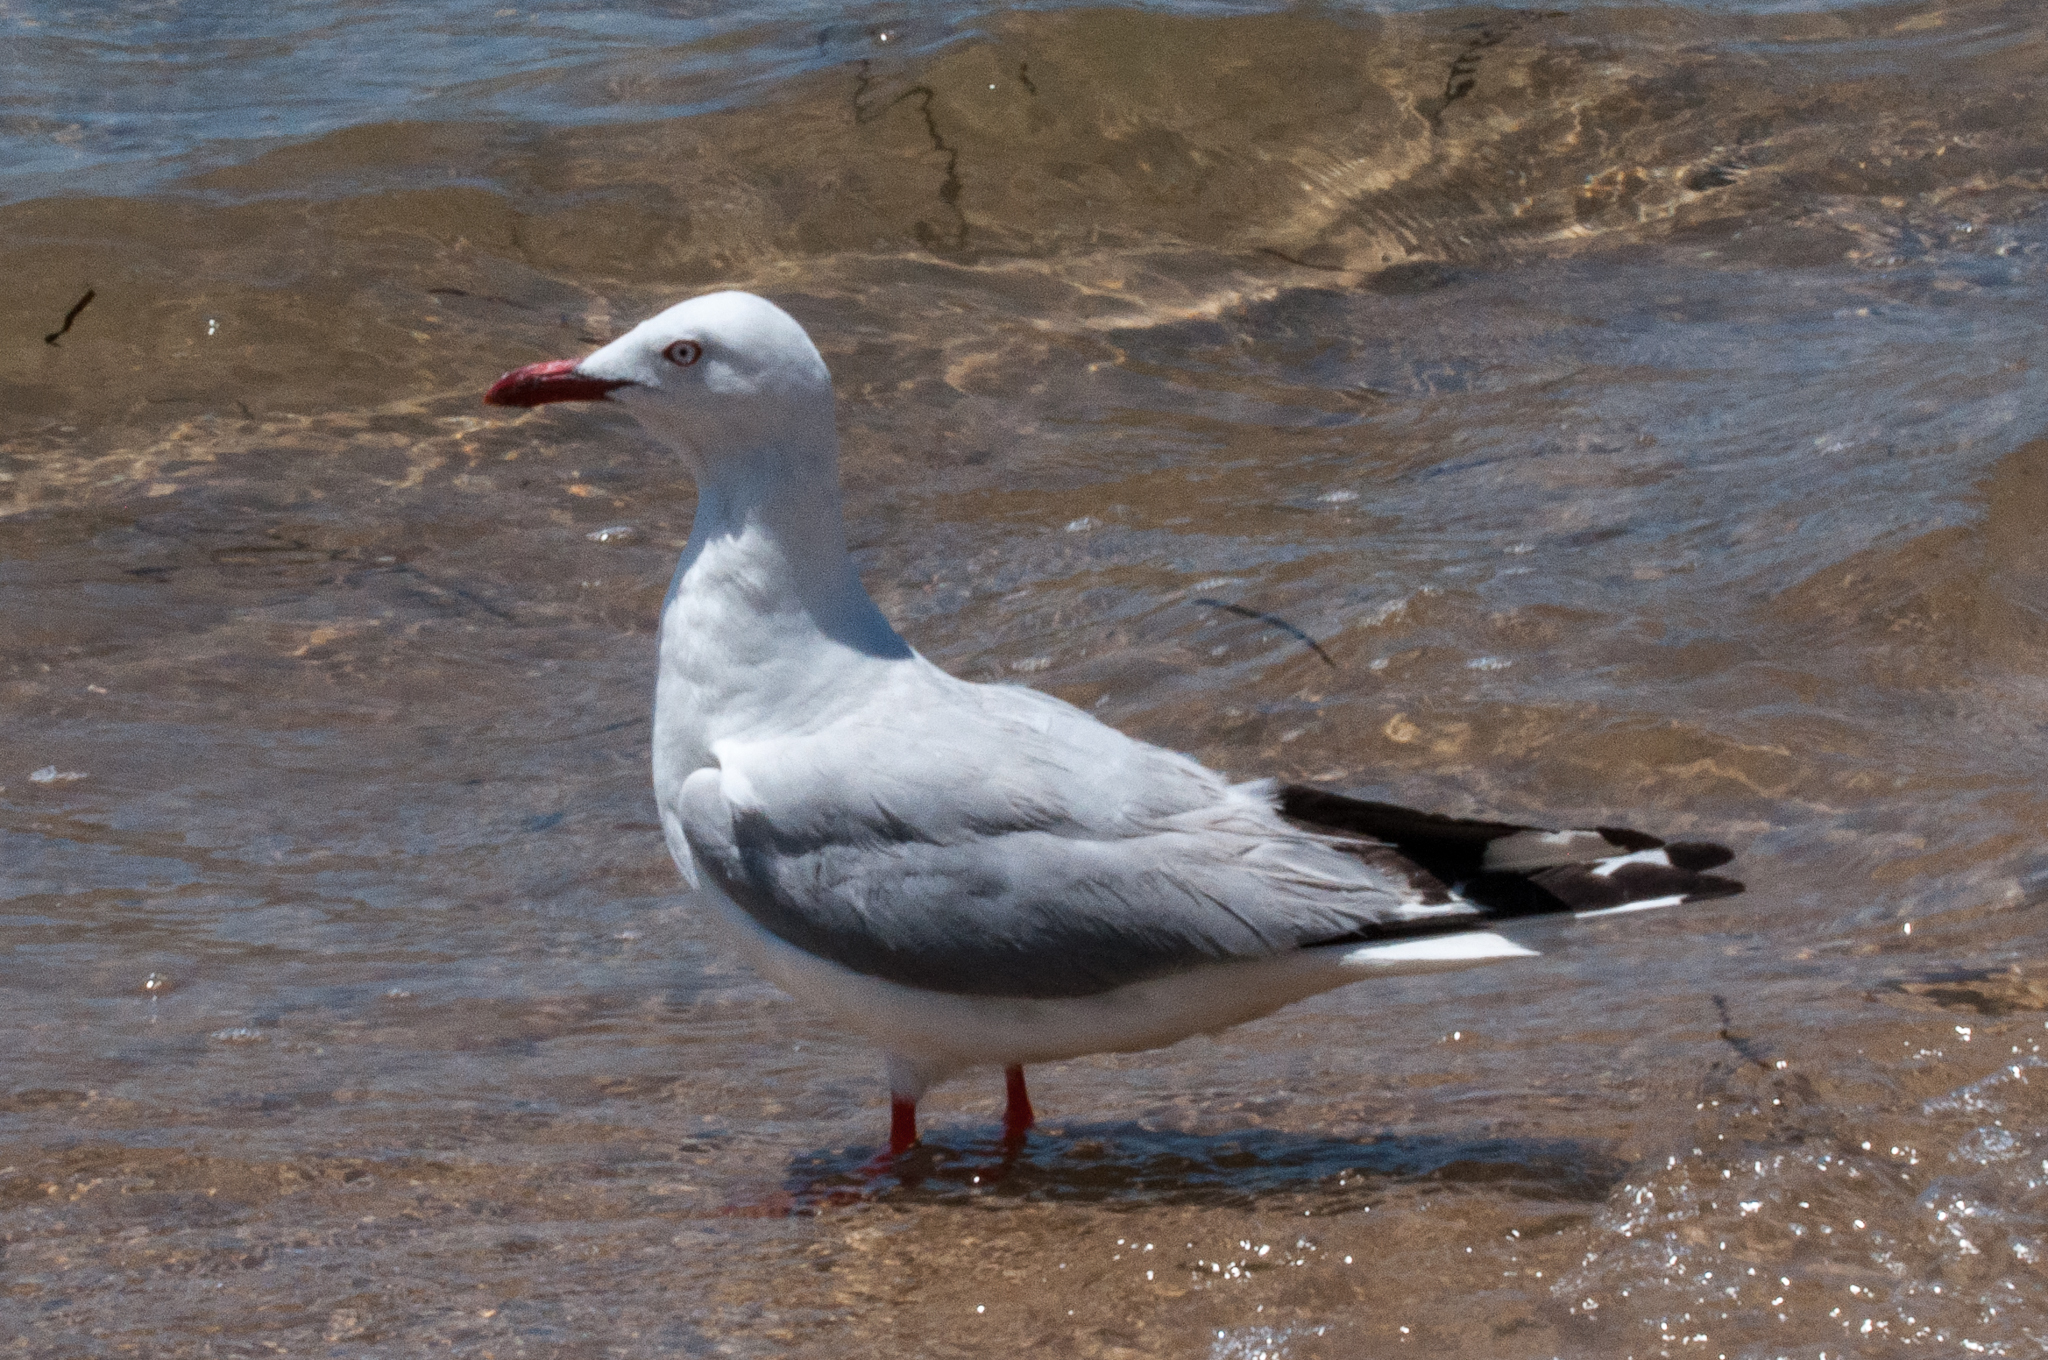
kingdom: Animalia
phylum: Chordata
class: Aves
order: Charadriiformes
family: Laridae
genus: Chroicocephalus
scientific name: Chroicocephalus novaehollandiae
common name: Silver gull
